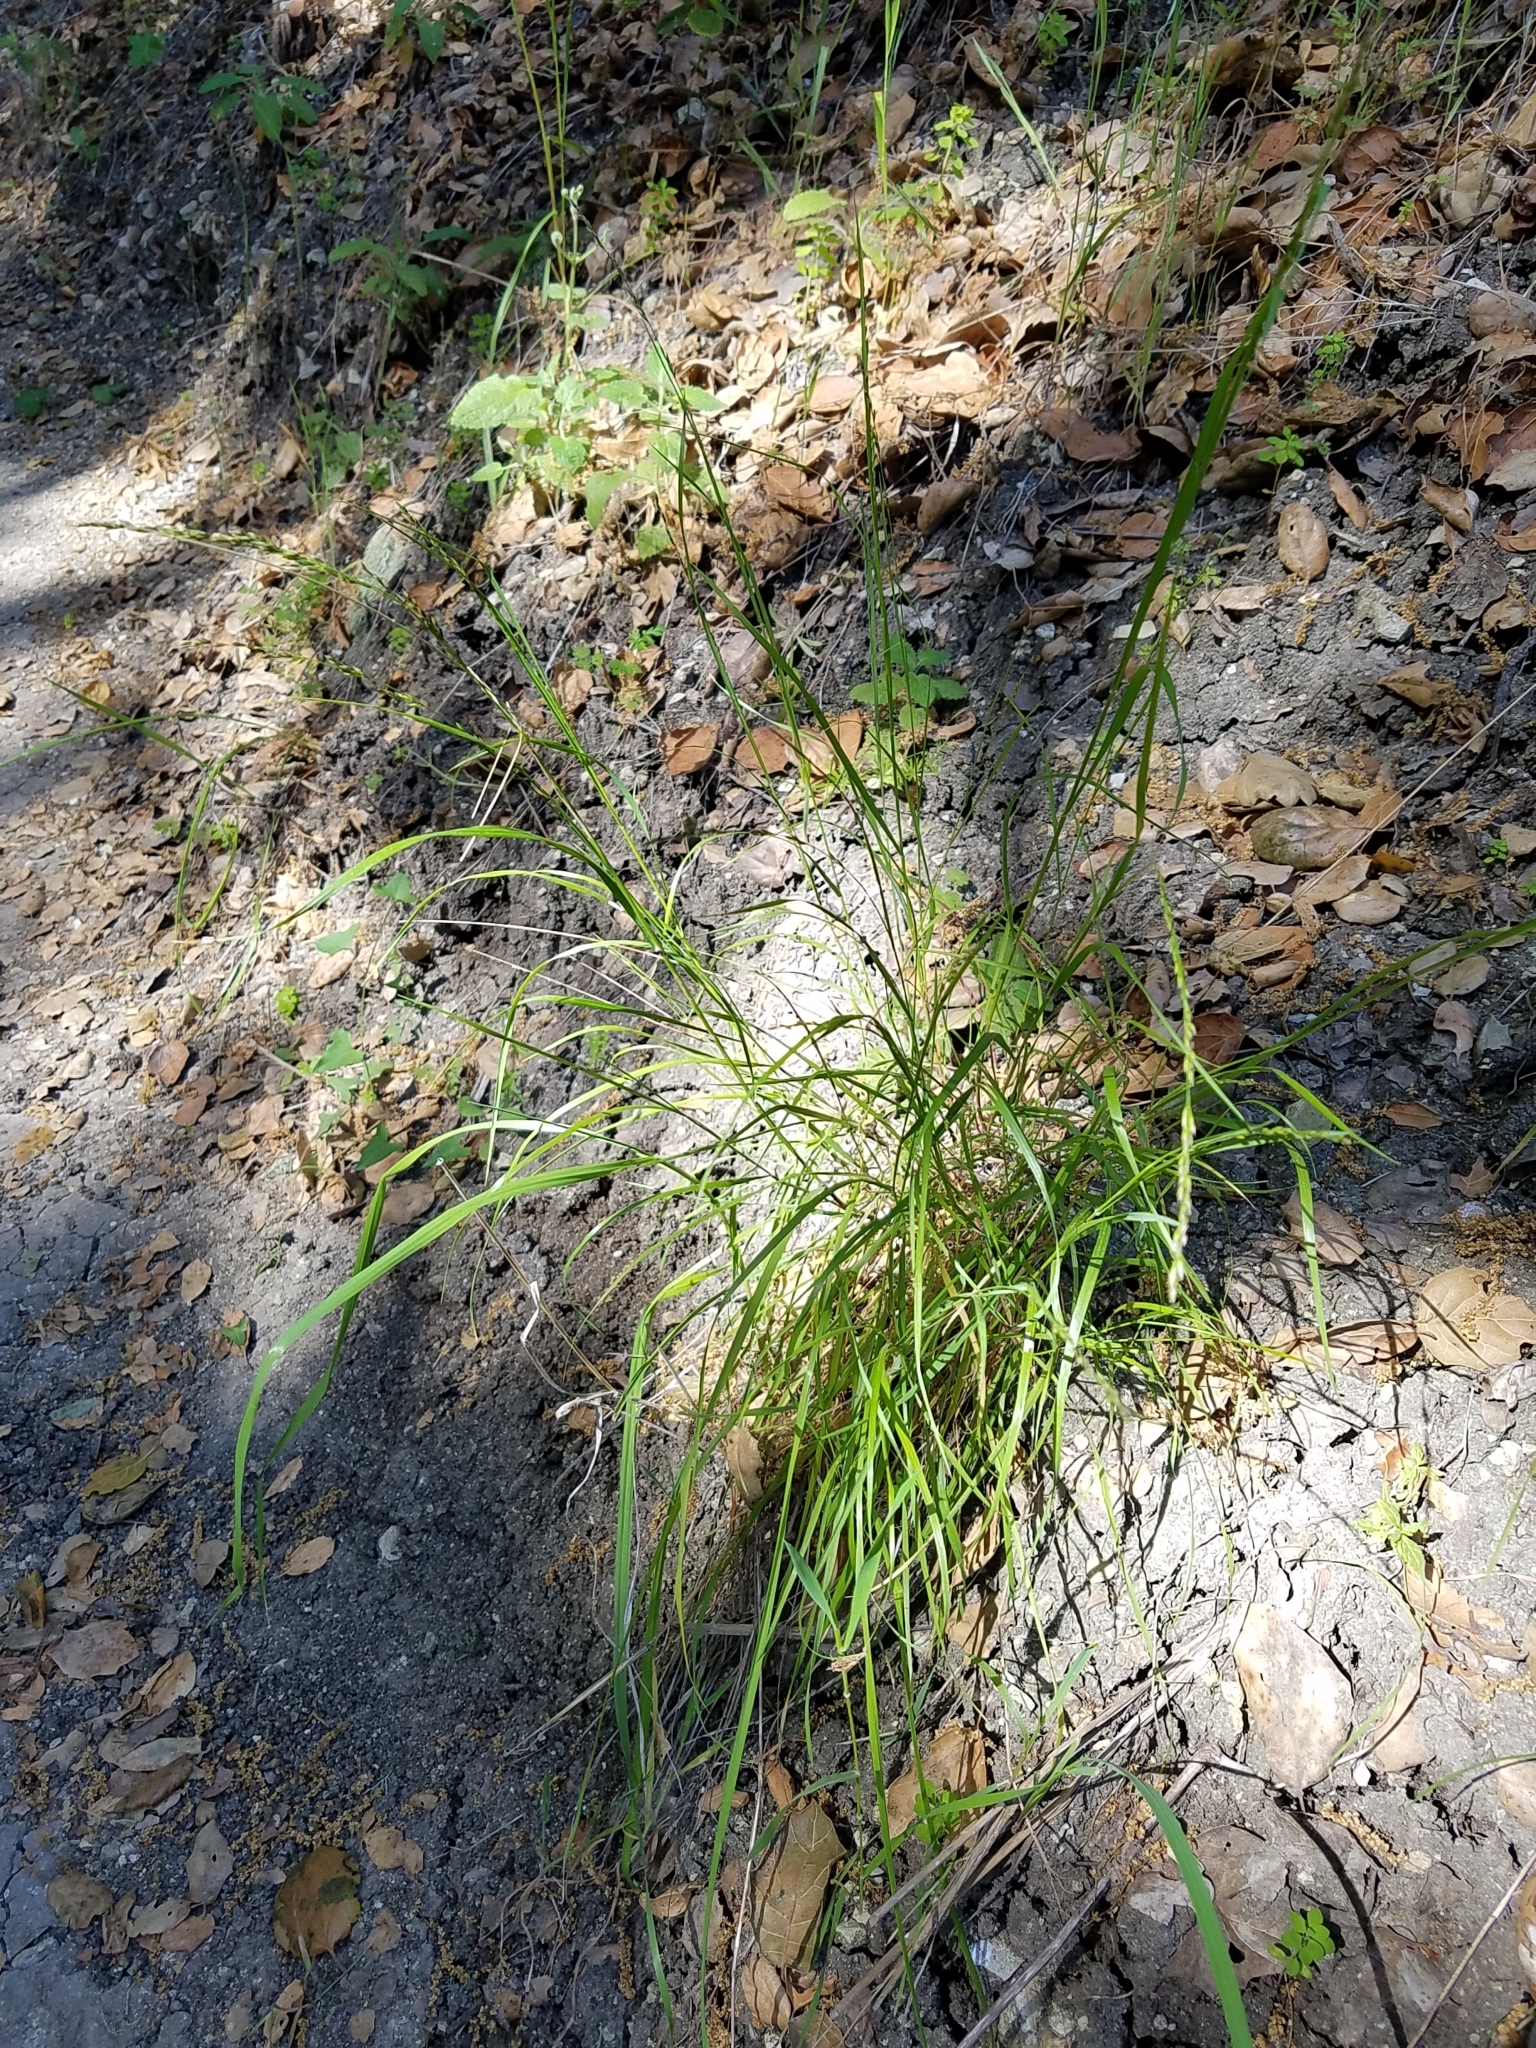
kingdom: Plantae
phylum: Tracheophyta
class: Liliopsida
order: Poales
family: Poaceae
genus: Melica
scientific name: Melica imperfecta
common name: California melic
